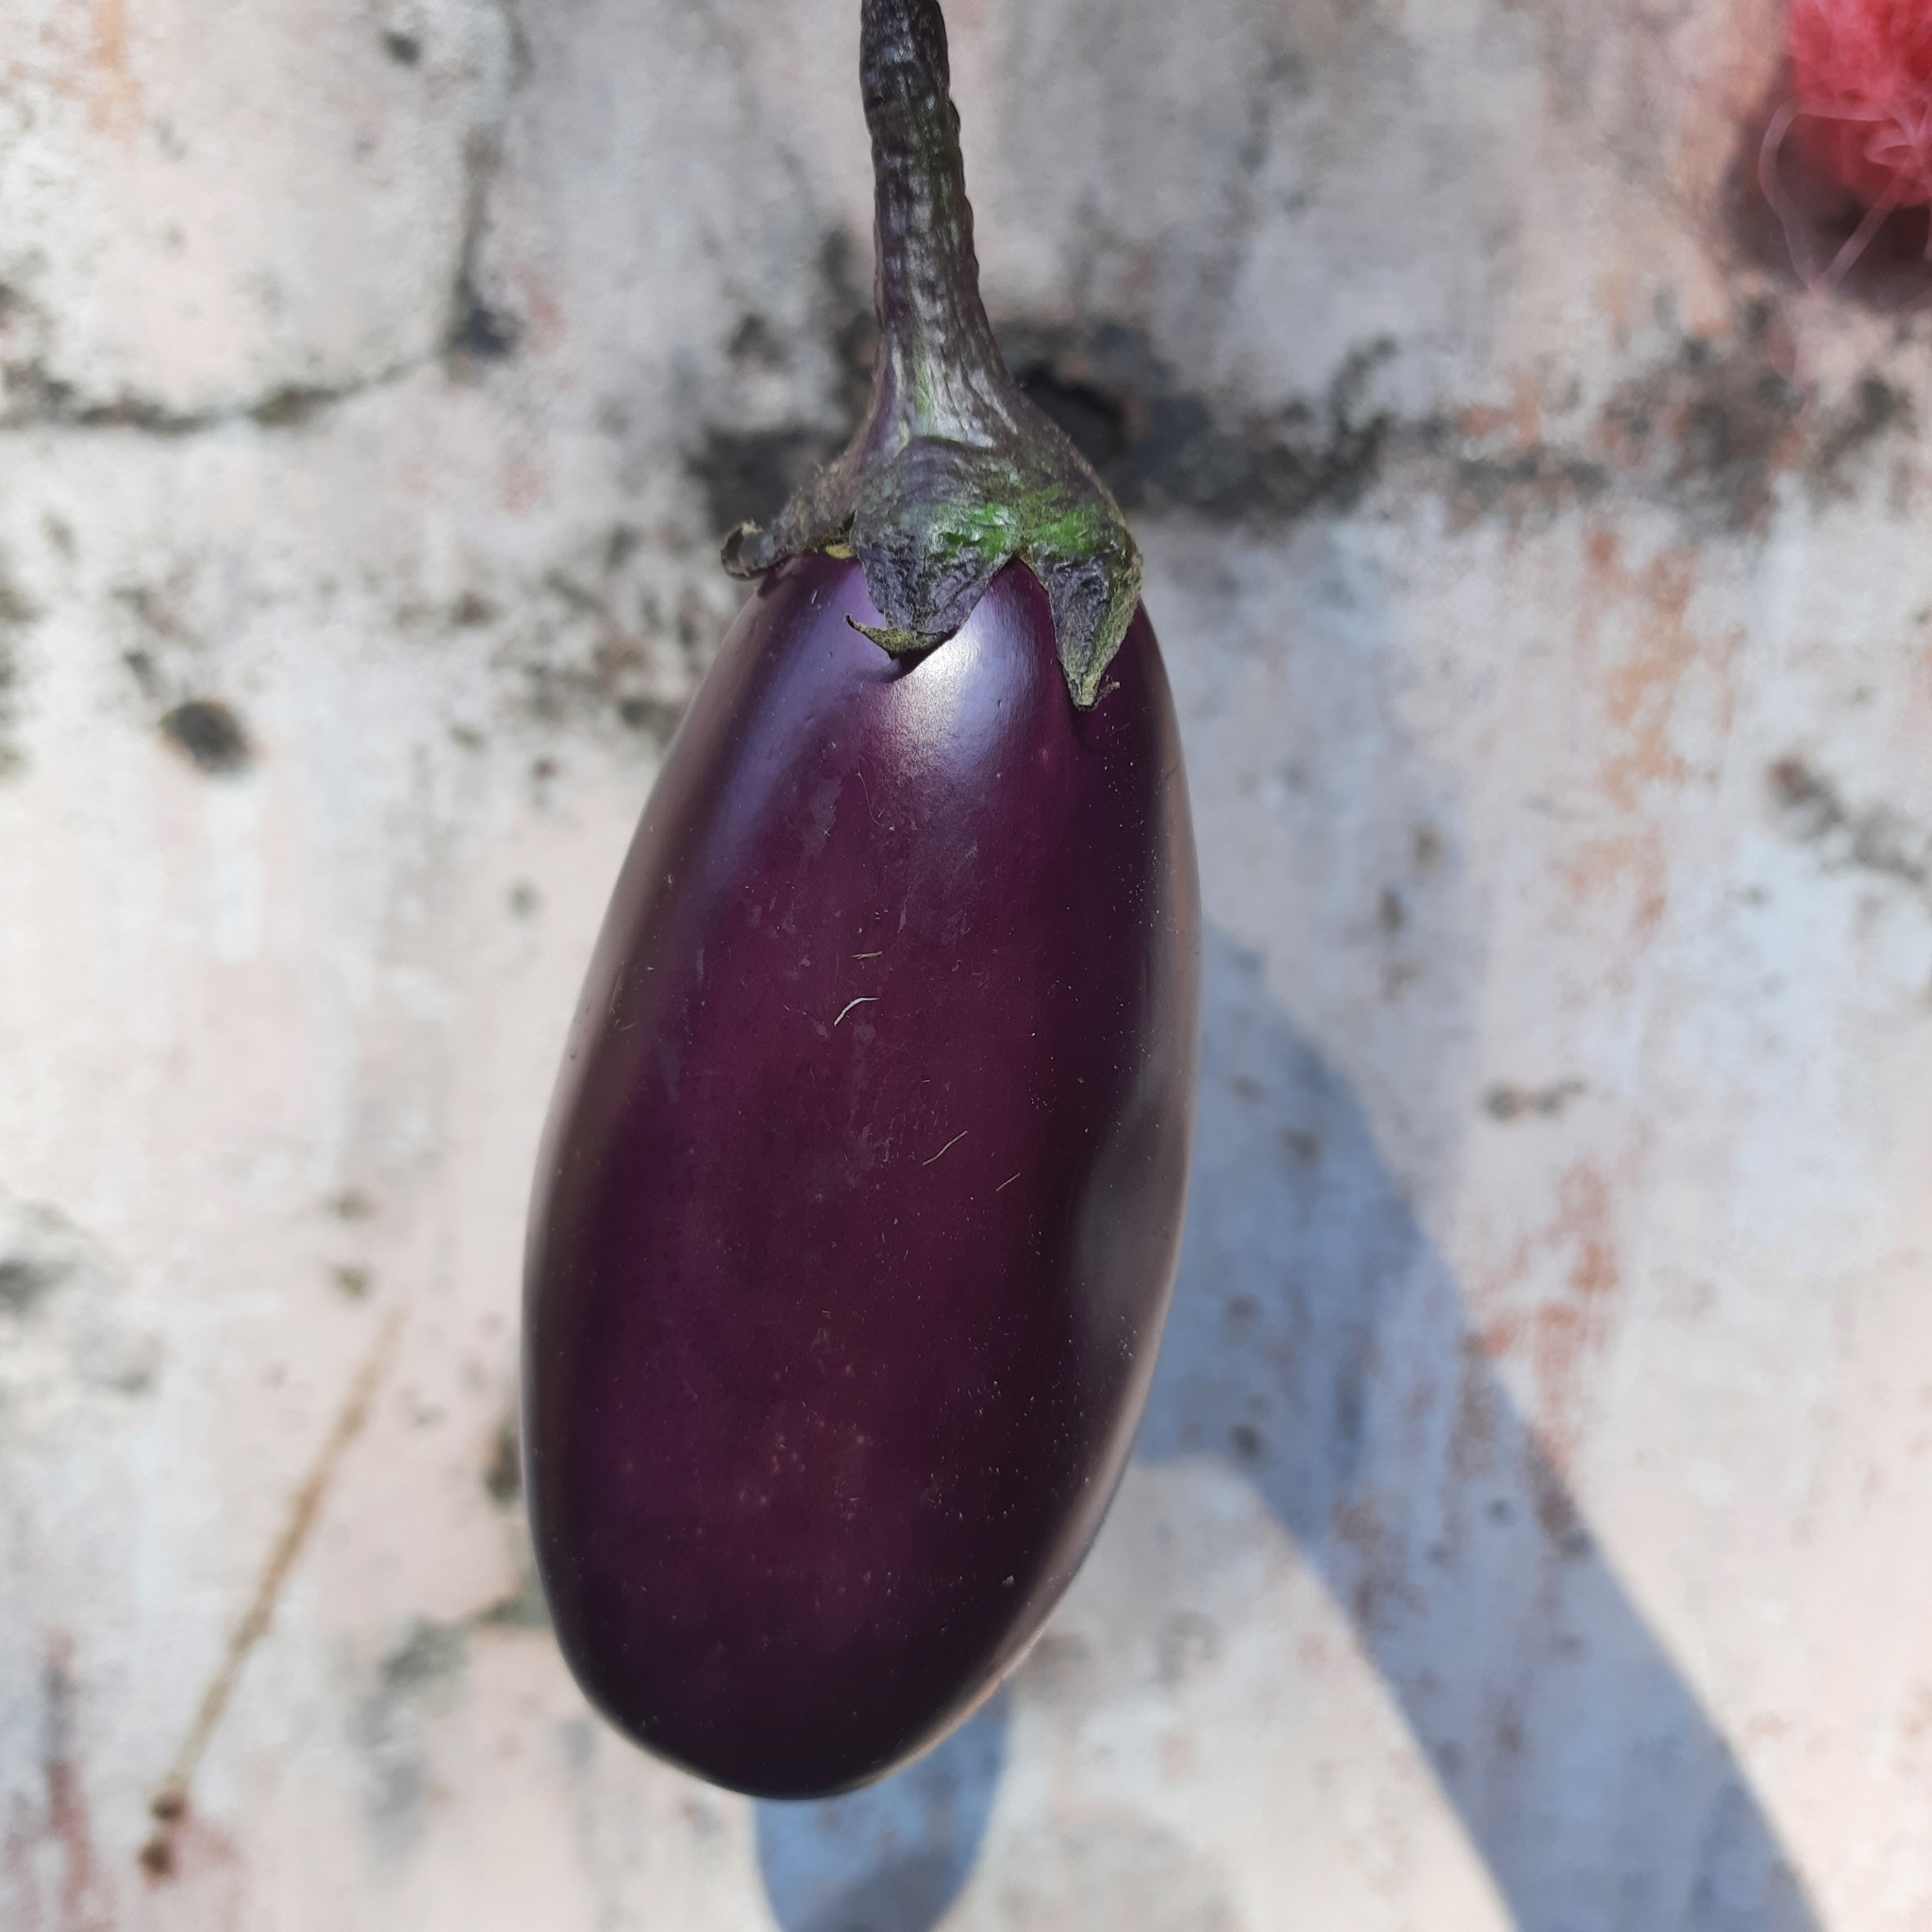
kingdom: Plantae
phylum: Tracheophyta
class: Magnoliopsida
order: Solanales
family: Solanaceae
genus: Solanum
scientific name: Solanum melongena
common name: Eggplant
